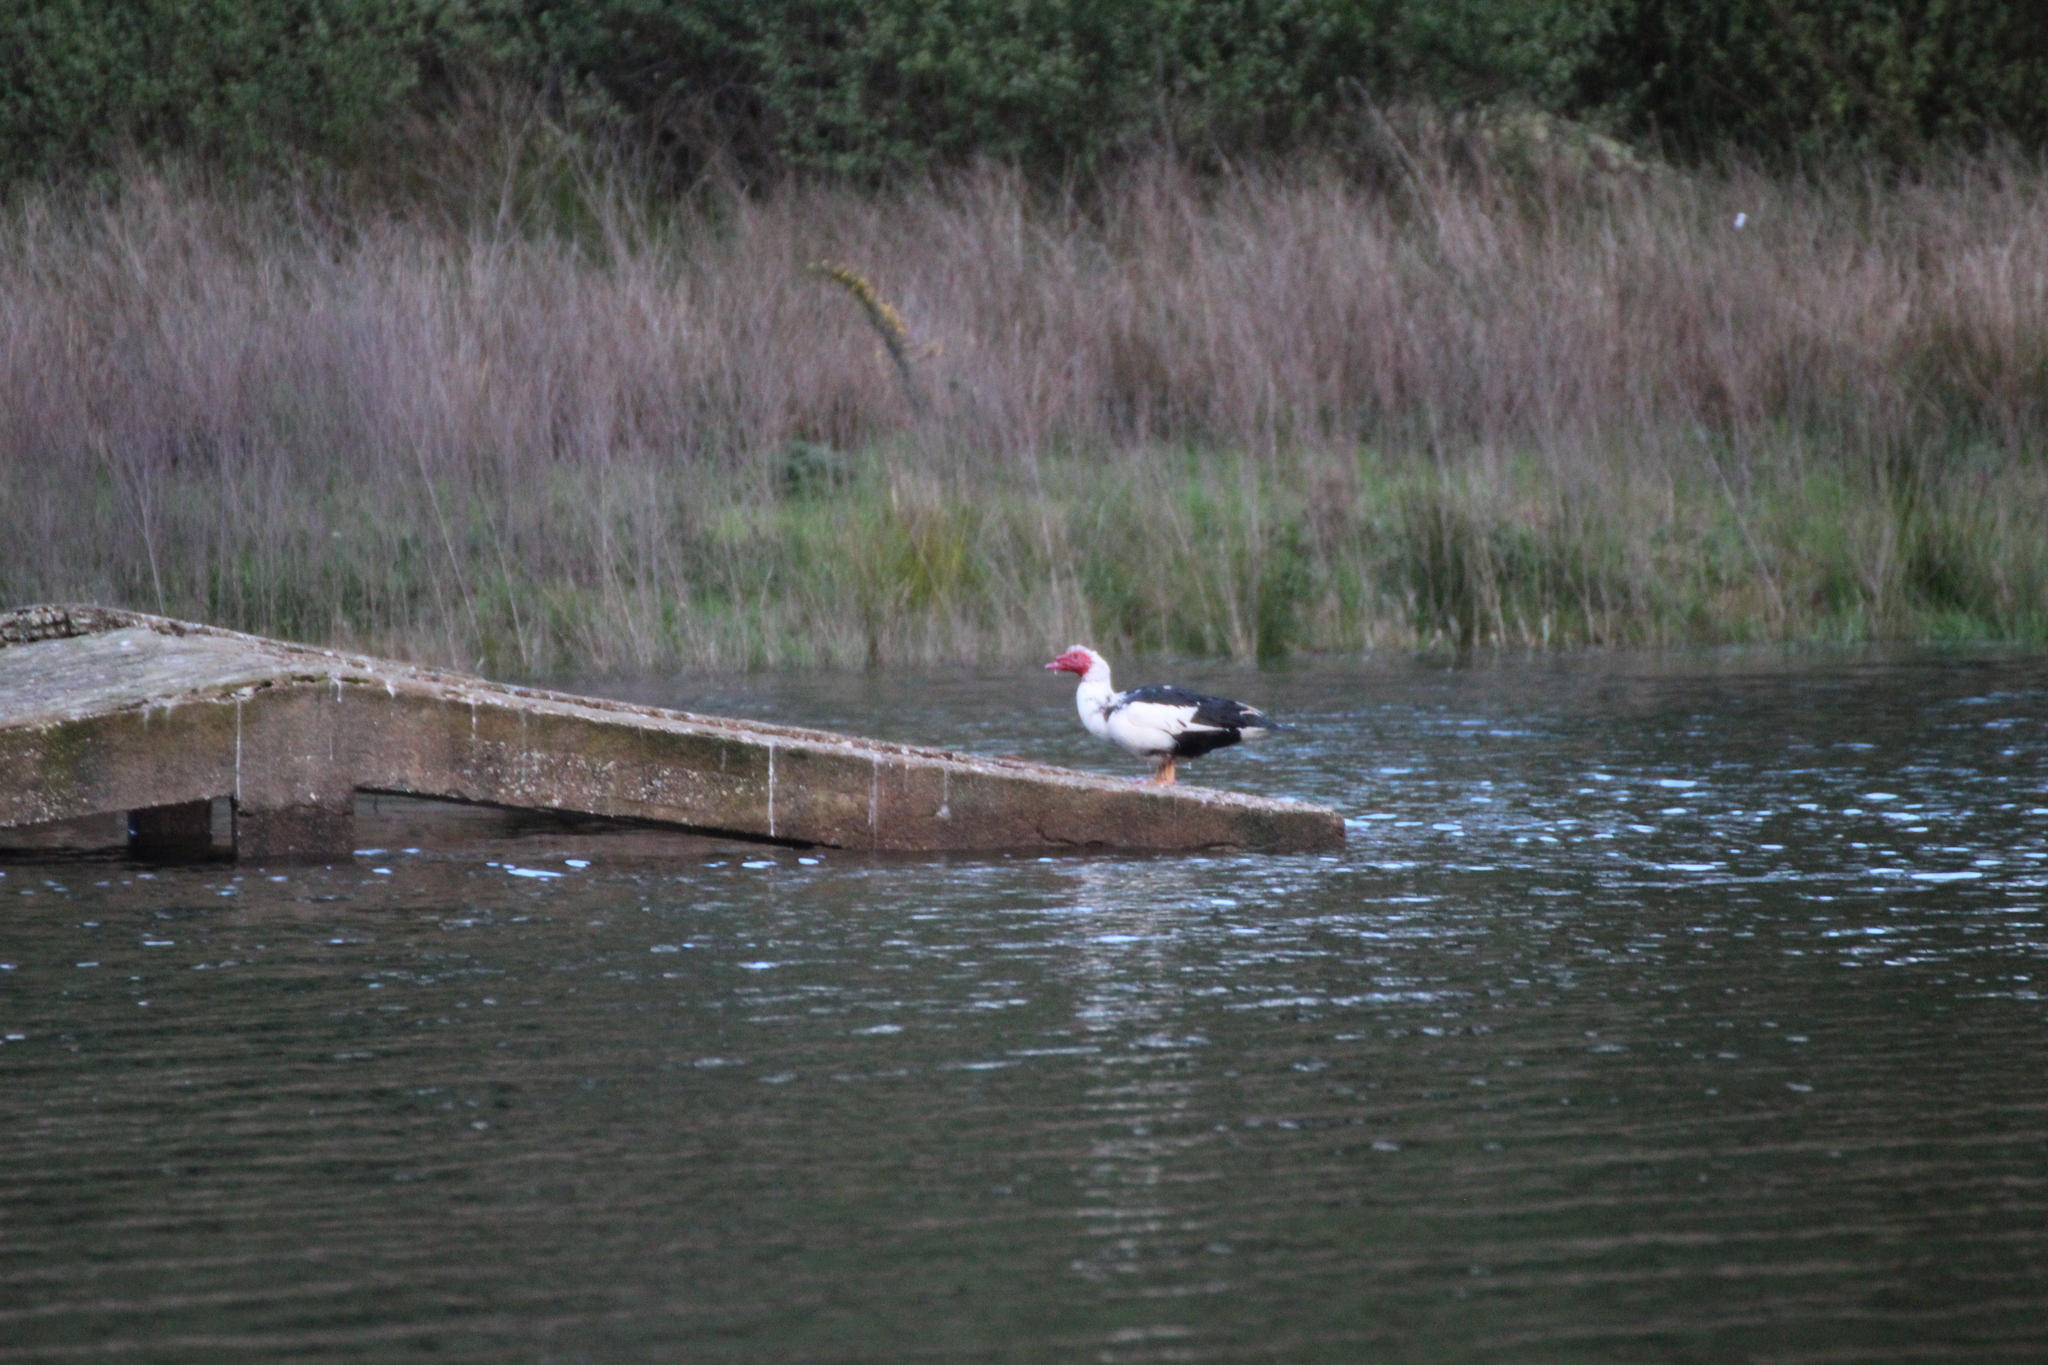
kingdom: Animalia
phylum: Chordata
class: Aves
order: Anseriformes
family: Anatidae
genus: Cairina
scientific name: Cairina moschata
